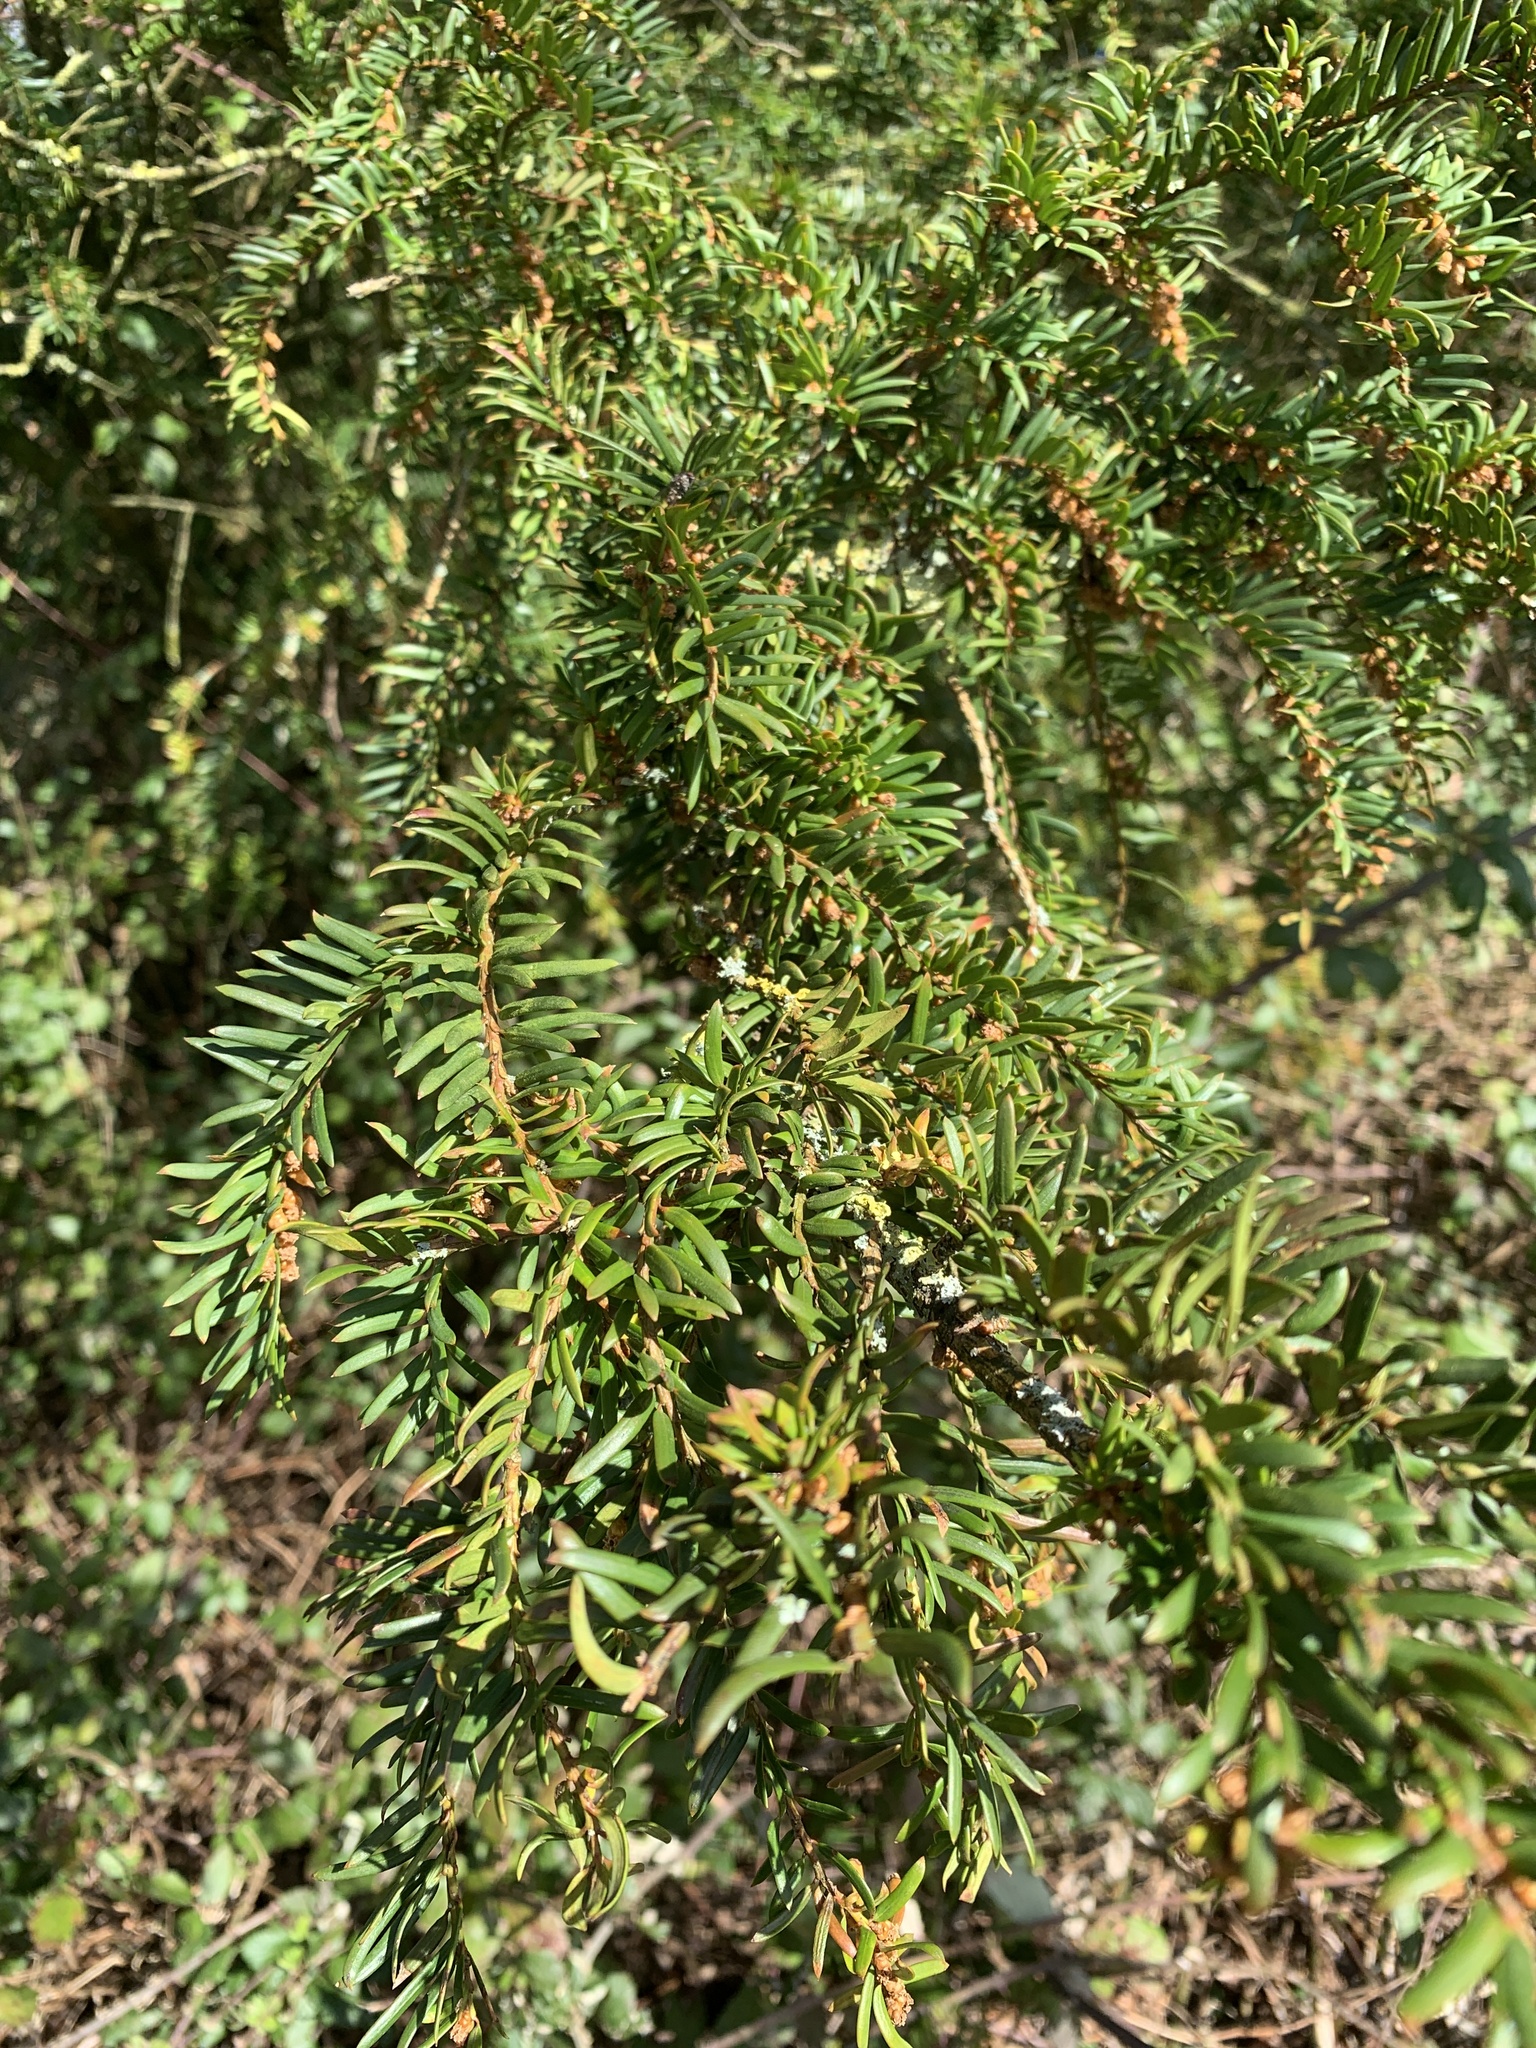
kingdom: Plantae
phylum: Tracheophyta
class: Pinopsida
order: Pinales
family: Taxaceae
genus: Taxus
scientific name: Taxus baccata
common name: Yew
